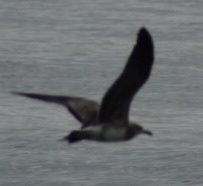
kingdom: Animalia
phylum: Chordata
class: Aves
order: Charadriiformes
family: Laridae
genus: Leucophaeus
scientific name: Leucophaeus atricilla
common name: Laughing gull
